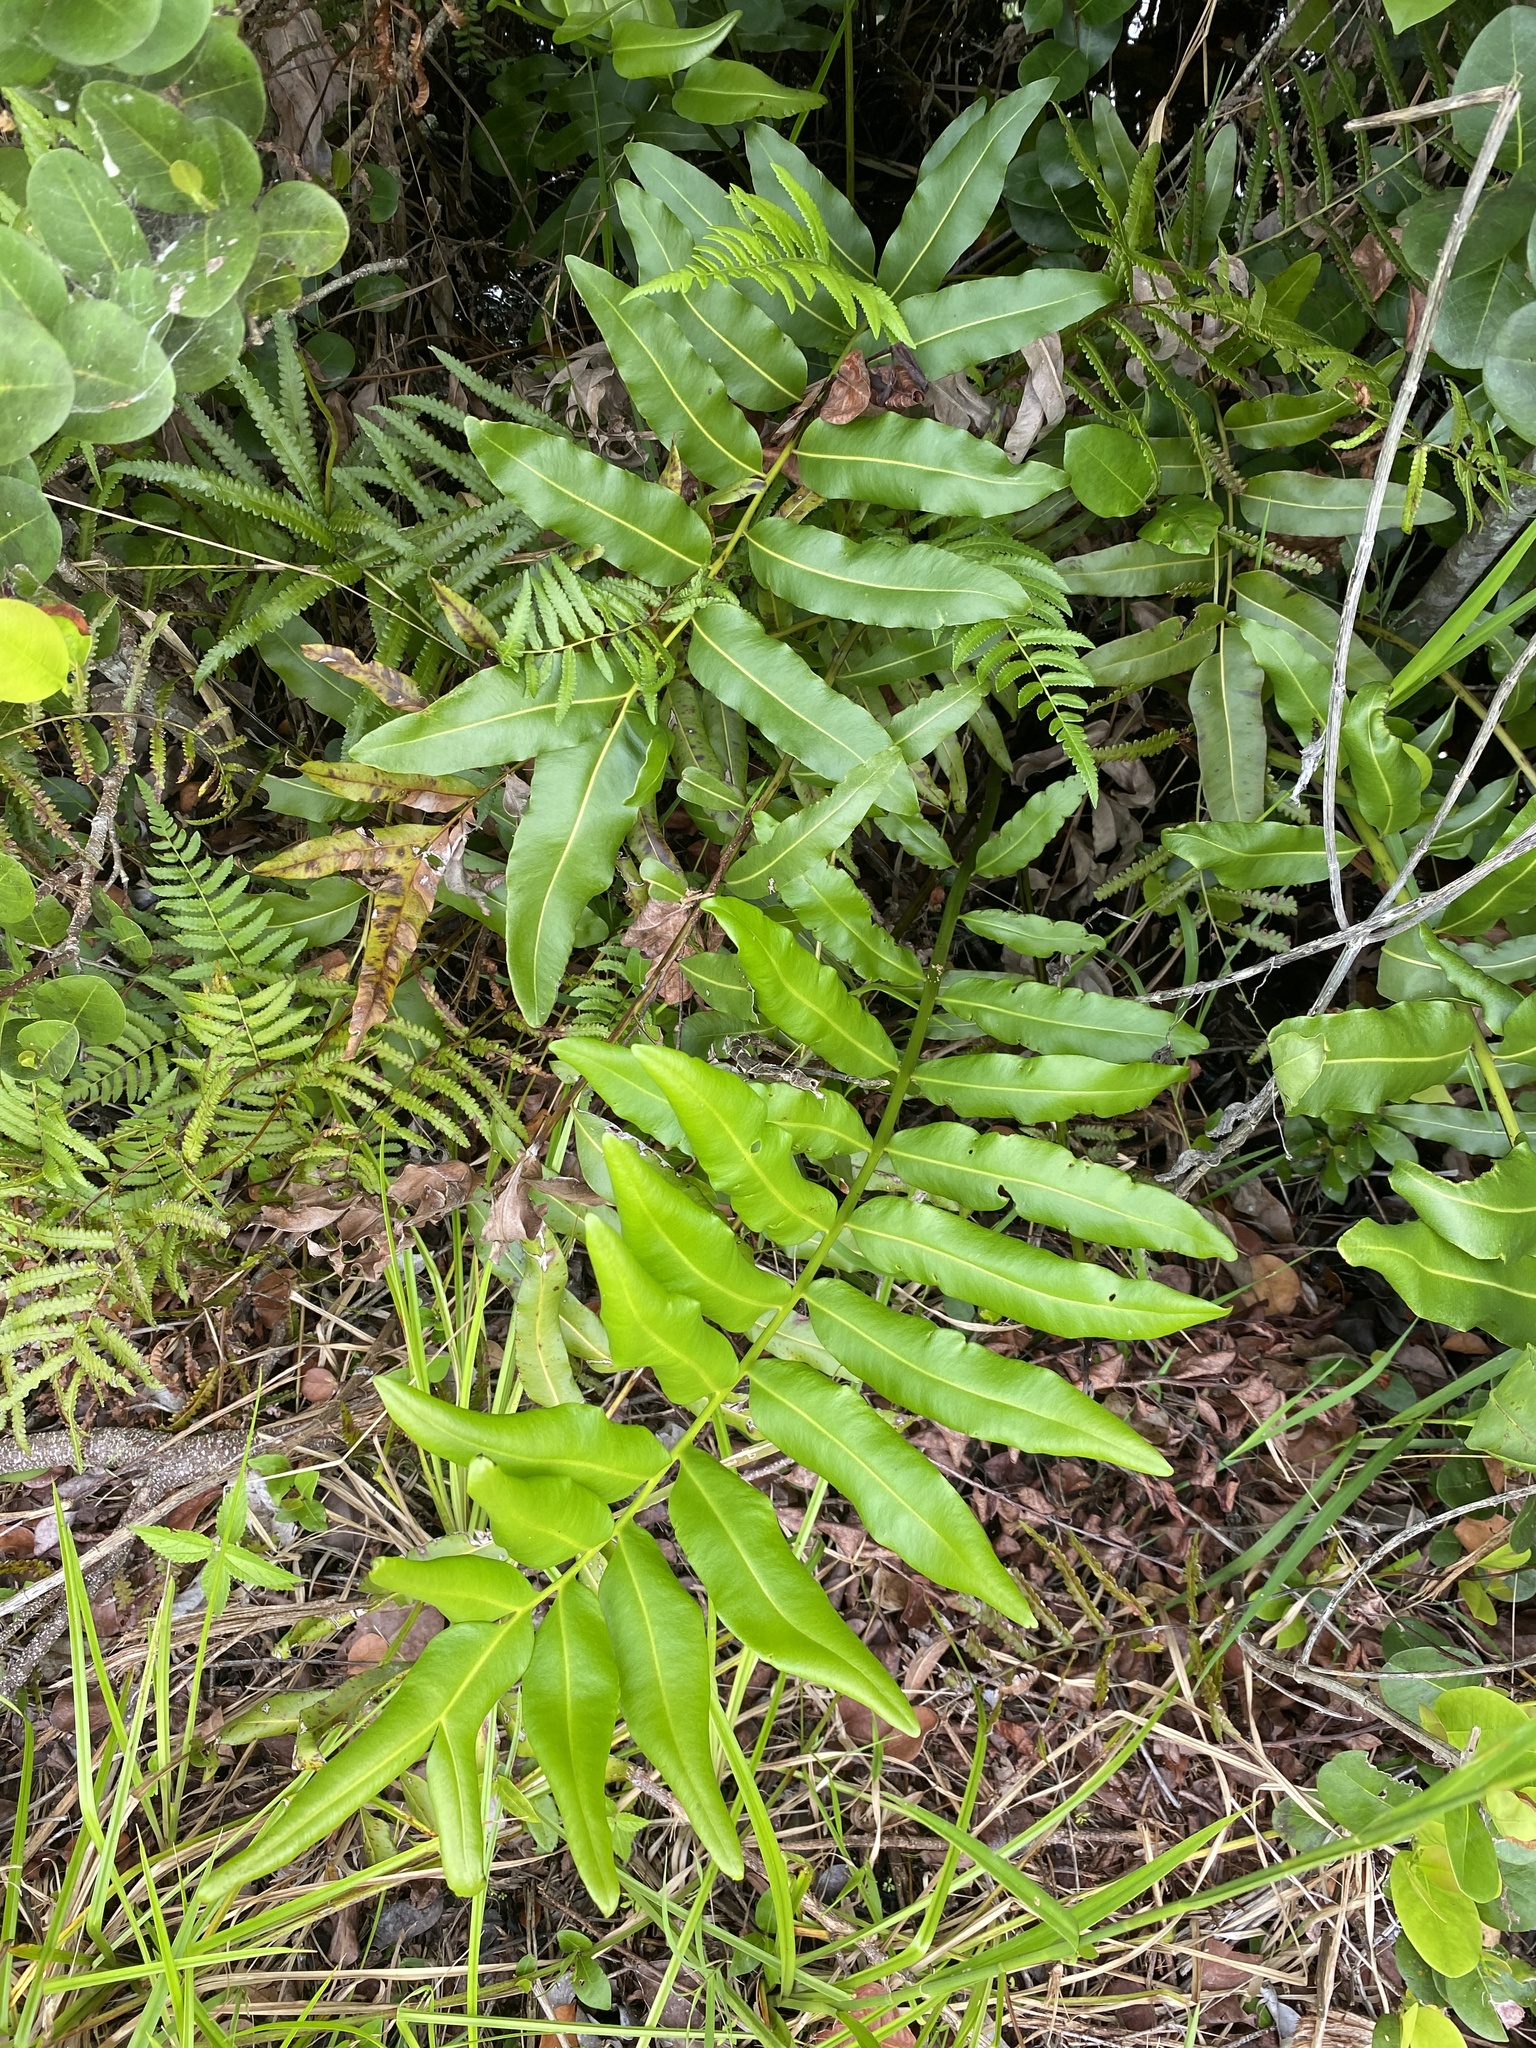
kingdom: Plantae
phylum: Tracheophyta
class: Polypodiopsida
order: Polypodiales
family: Pteridaceae
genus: Acrostichum
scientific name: Acrostichum danaeifolium
